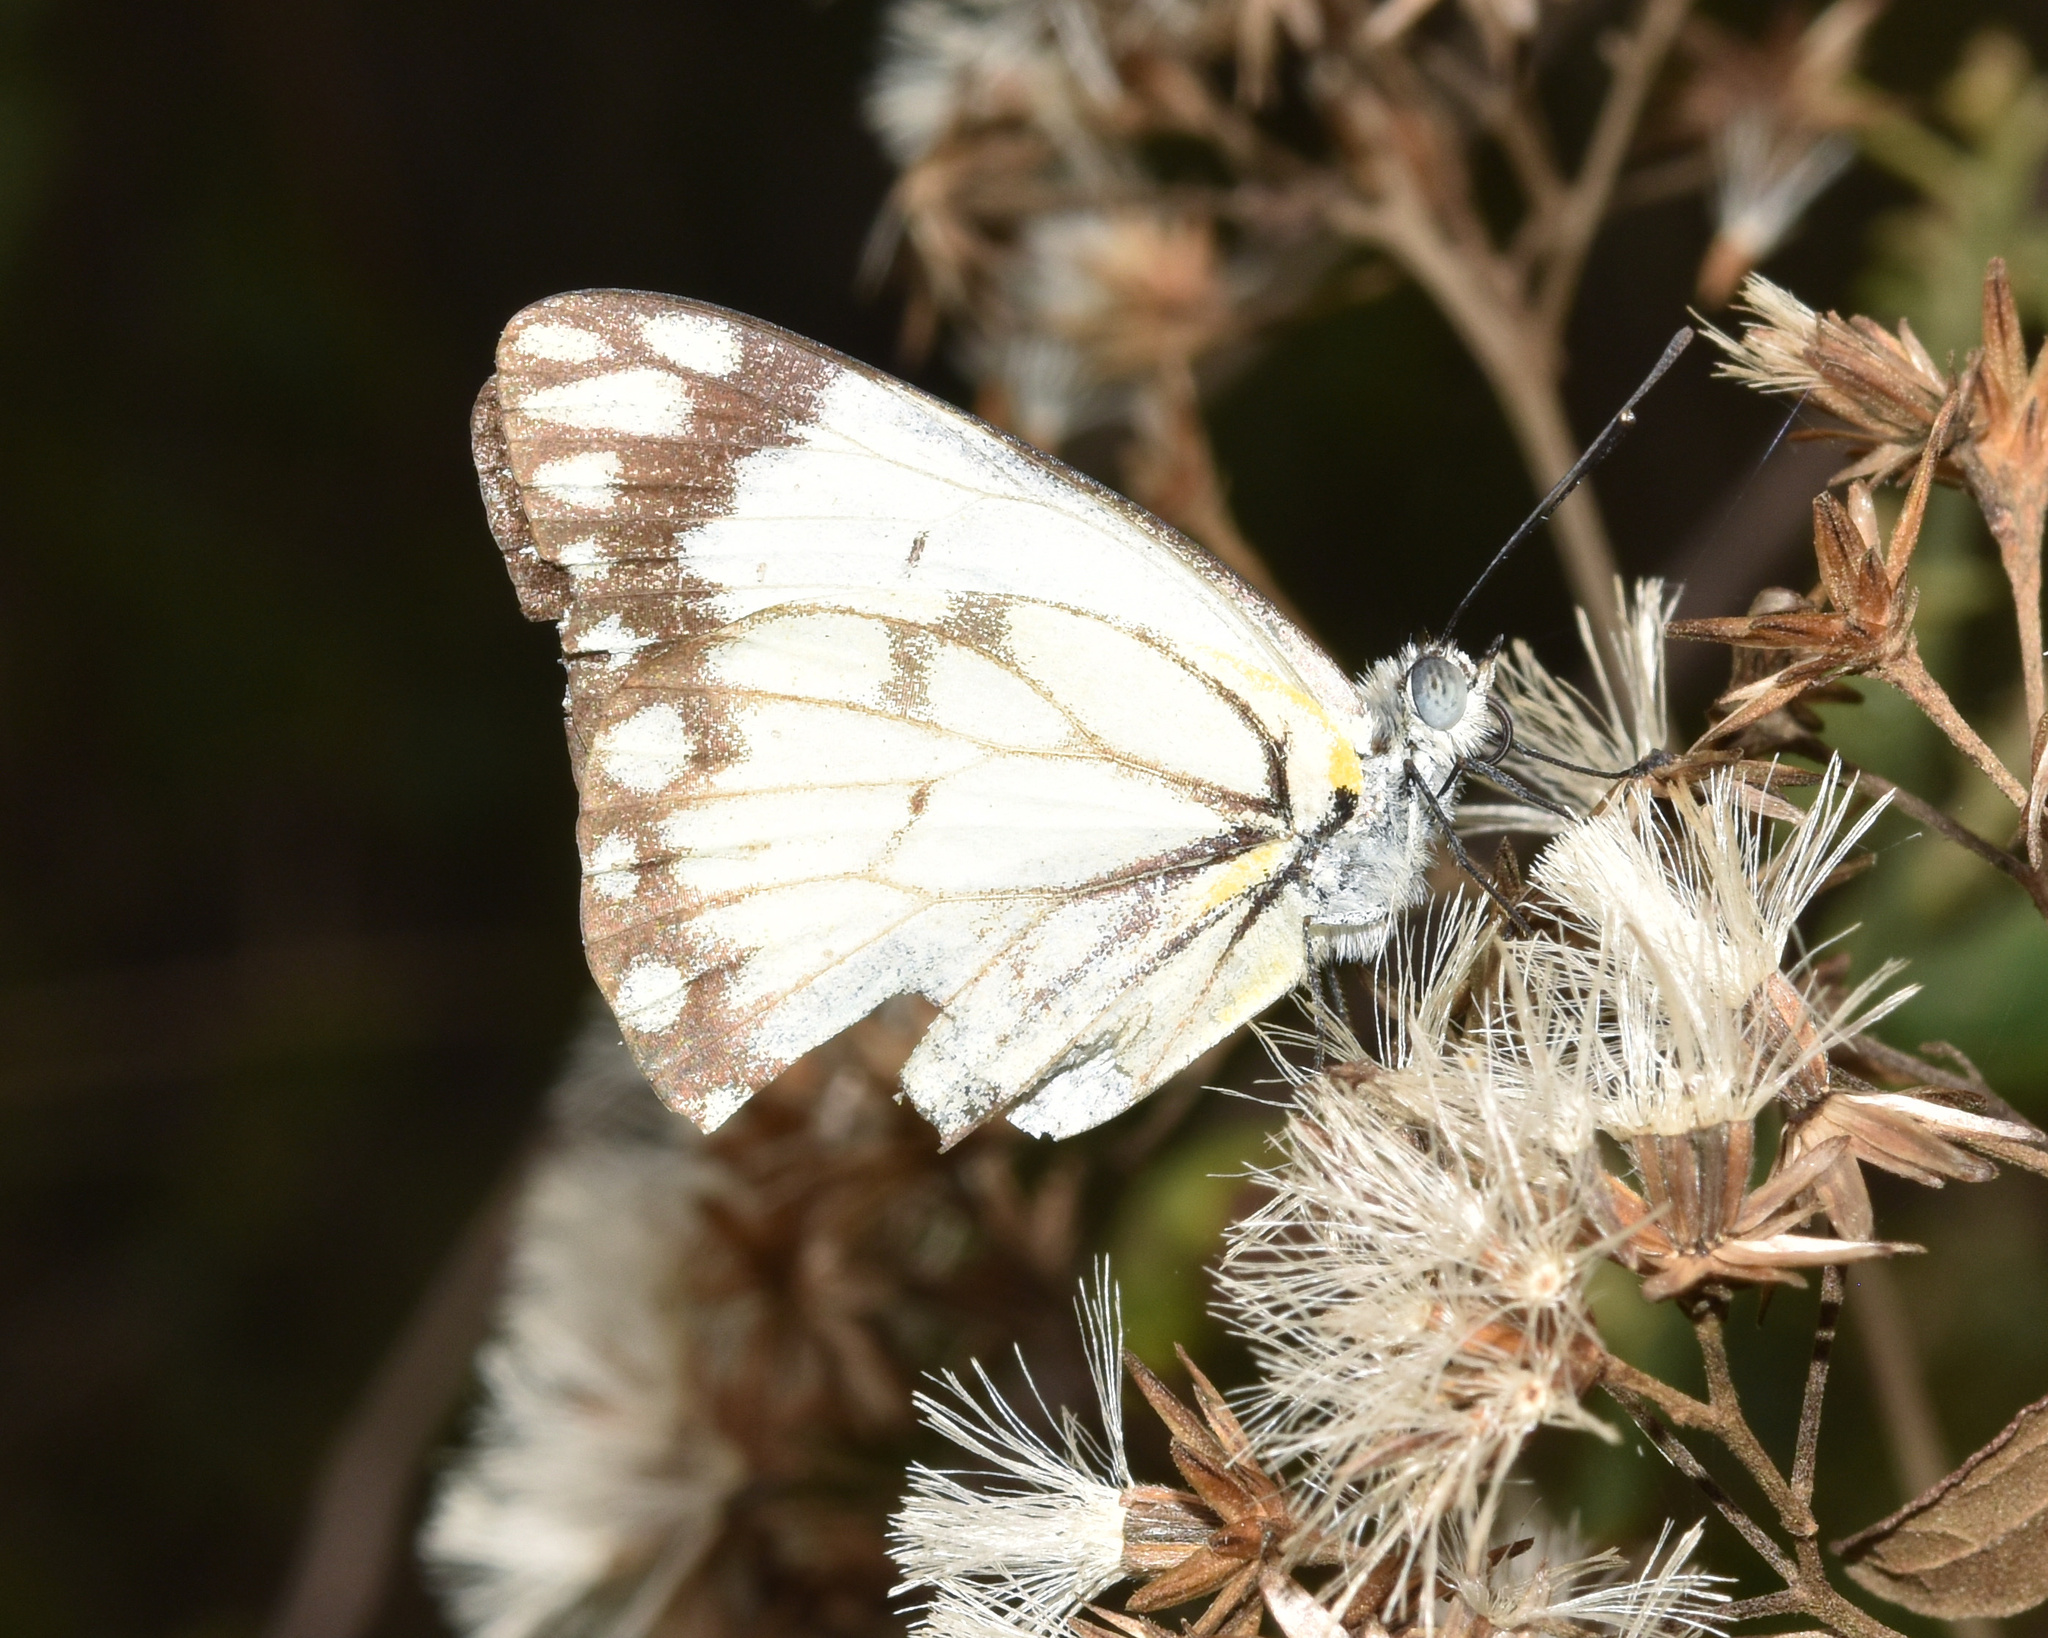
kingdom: Animalia
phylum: Arthropoda
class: Insecta
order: Lepidoptera
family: Pieridae
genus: Belenois
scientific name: Belenois aurota
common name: Brown-veined white
